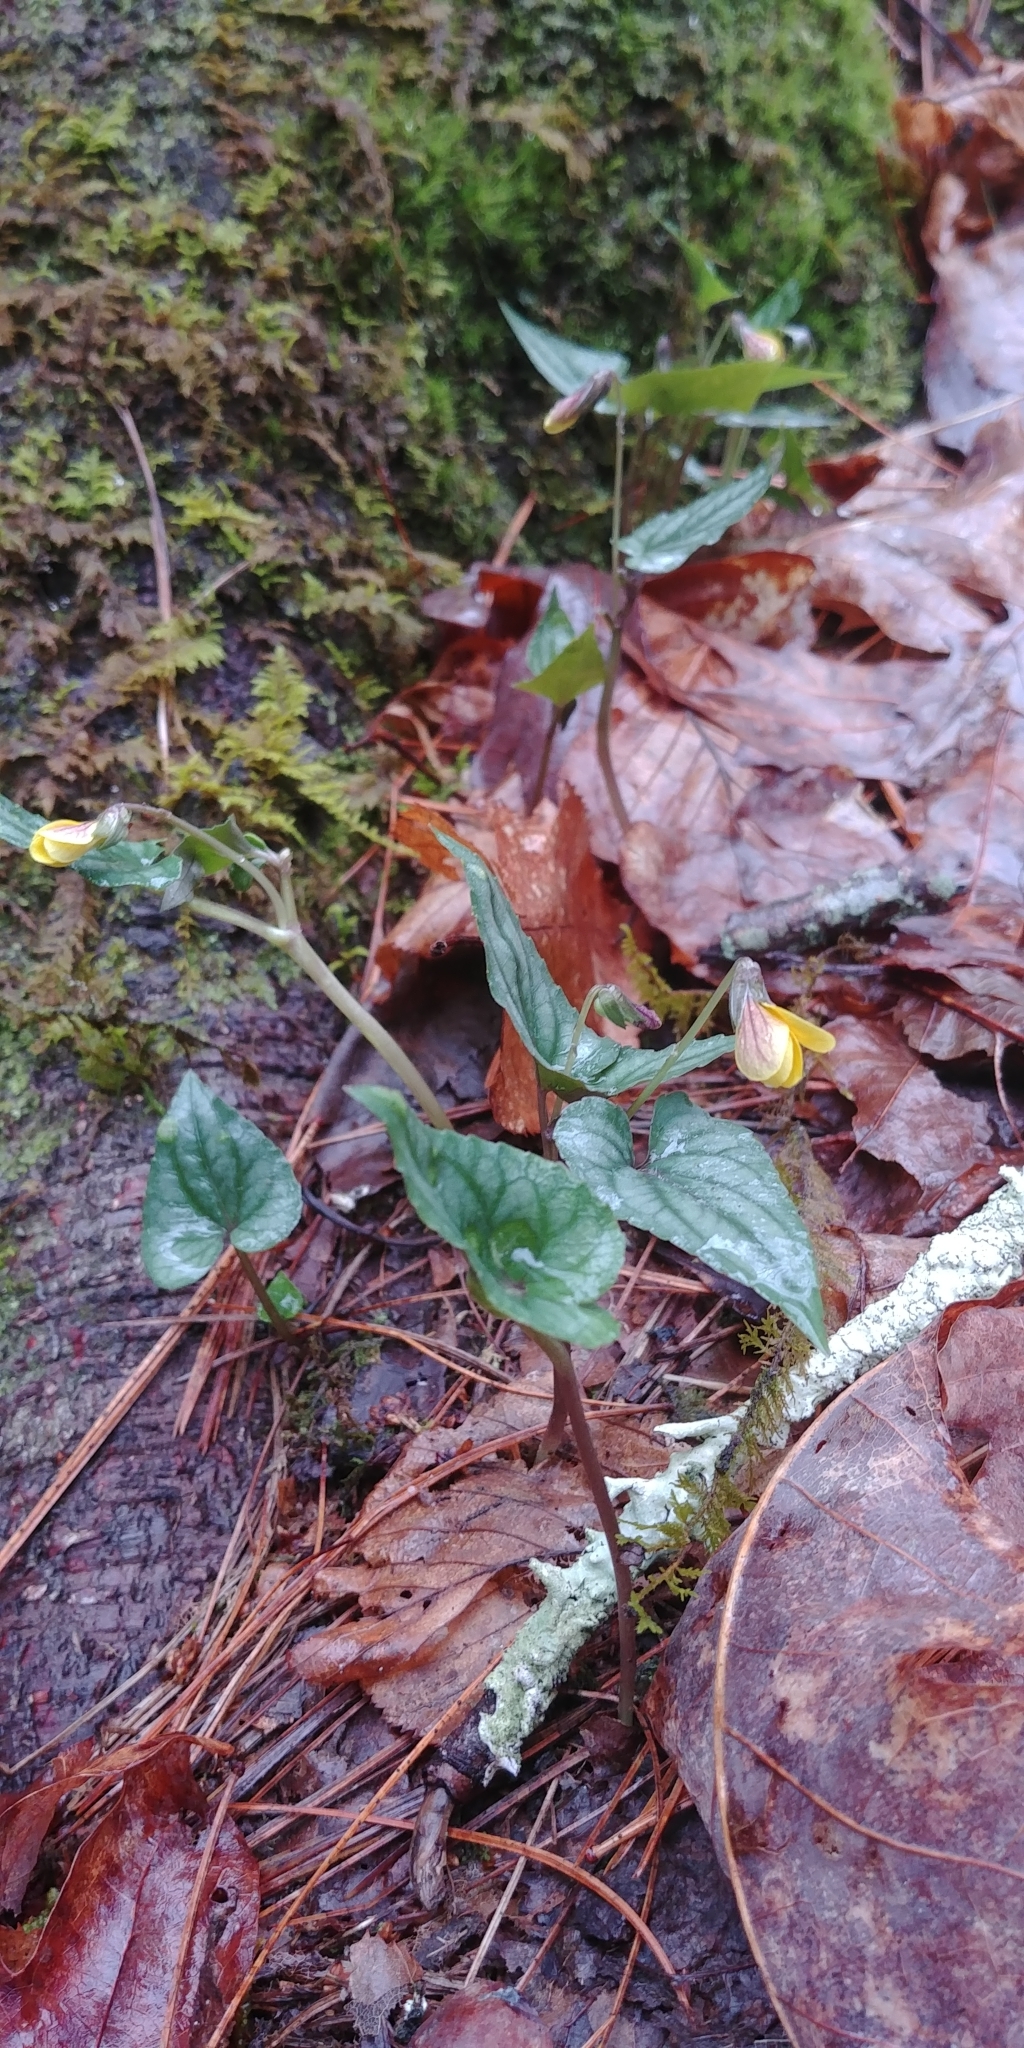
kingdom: Plantae
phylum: Tracheophyta
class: Magnoliopsida
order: Malpighiales
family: Violaceae
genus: Viola
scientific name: Viola hastata
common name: Spear-leaf violet
